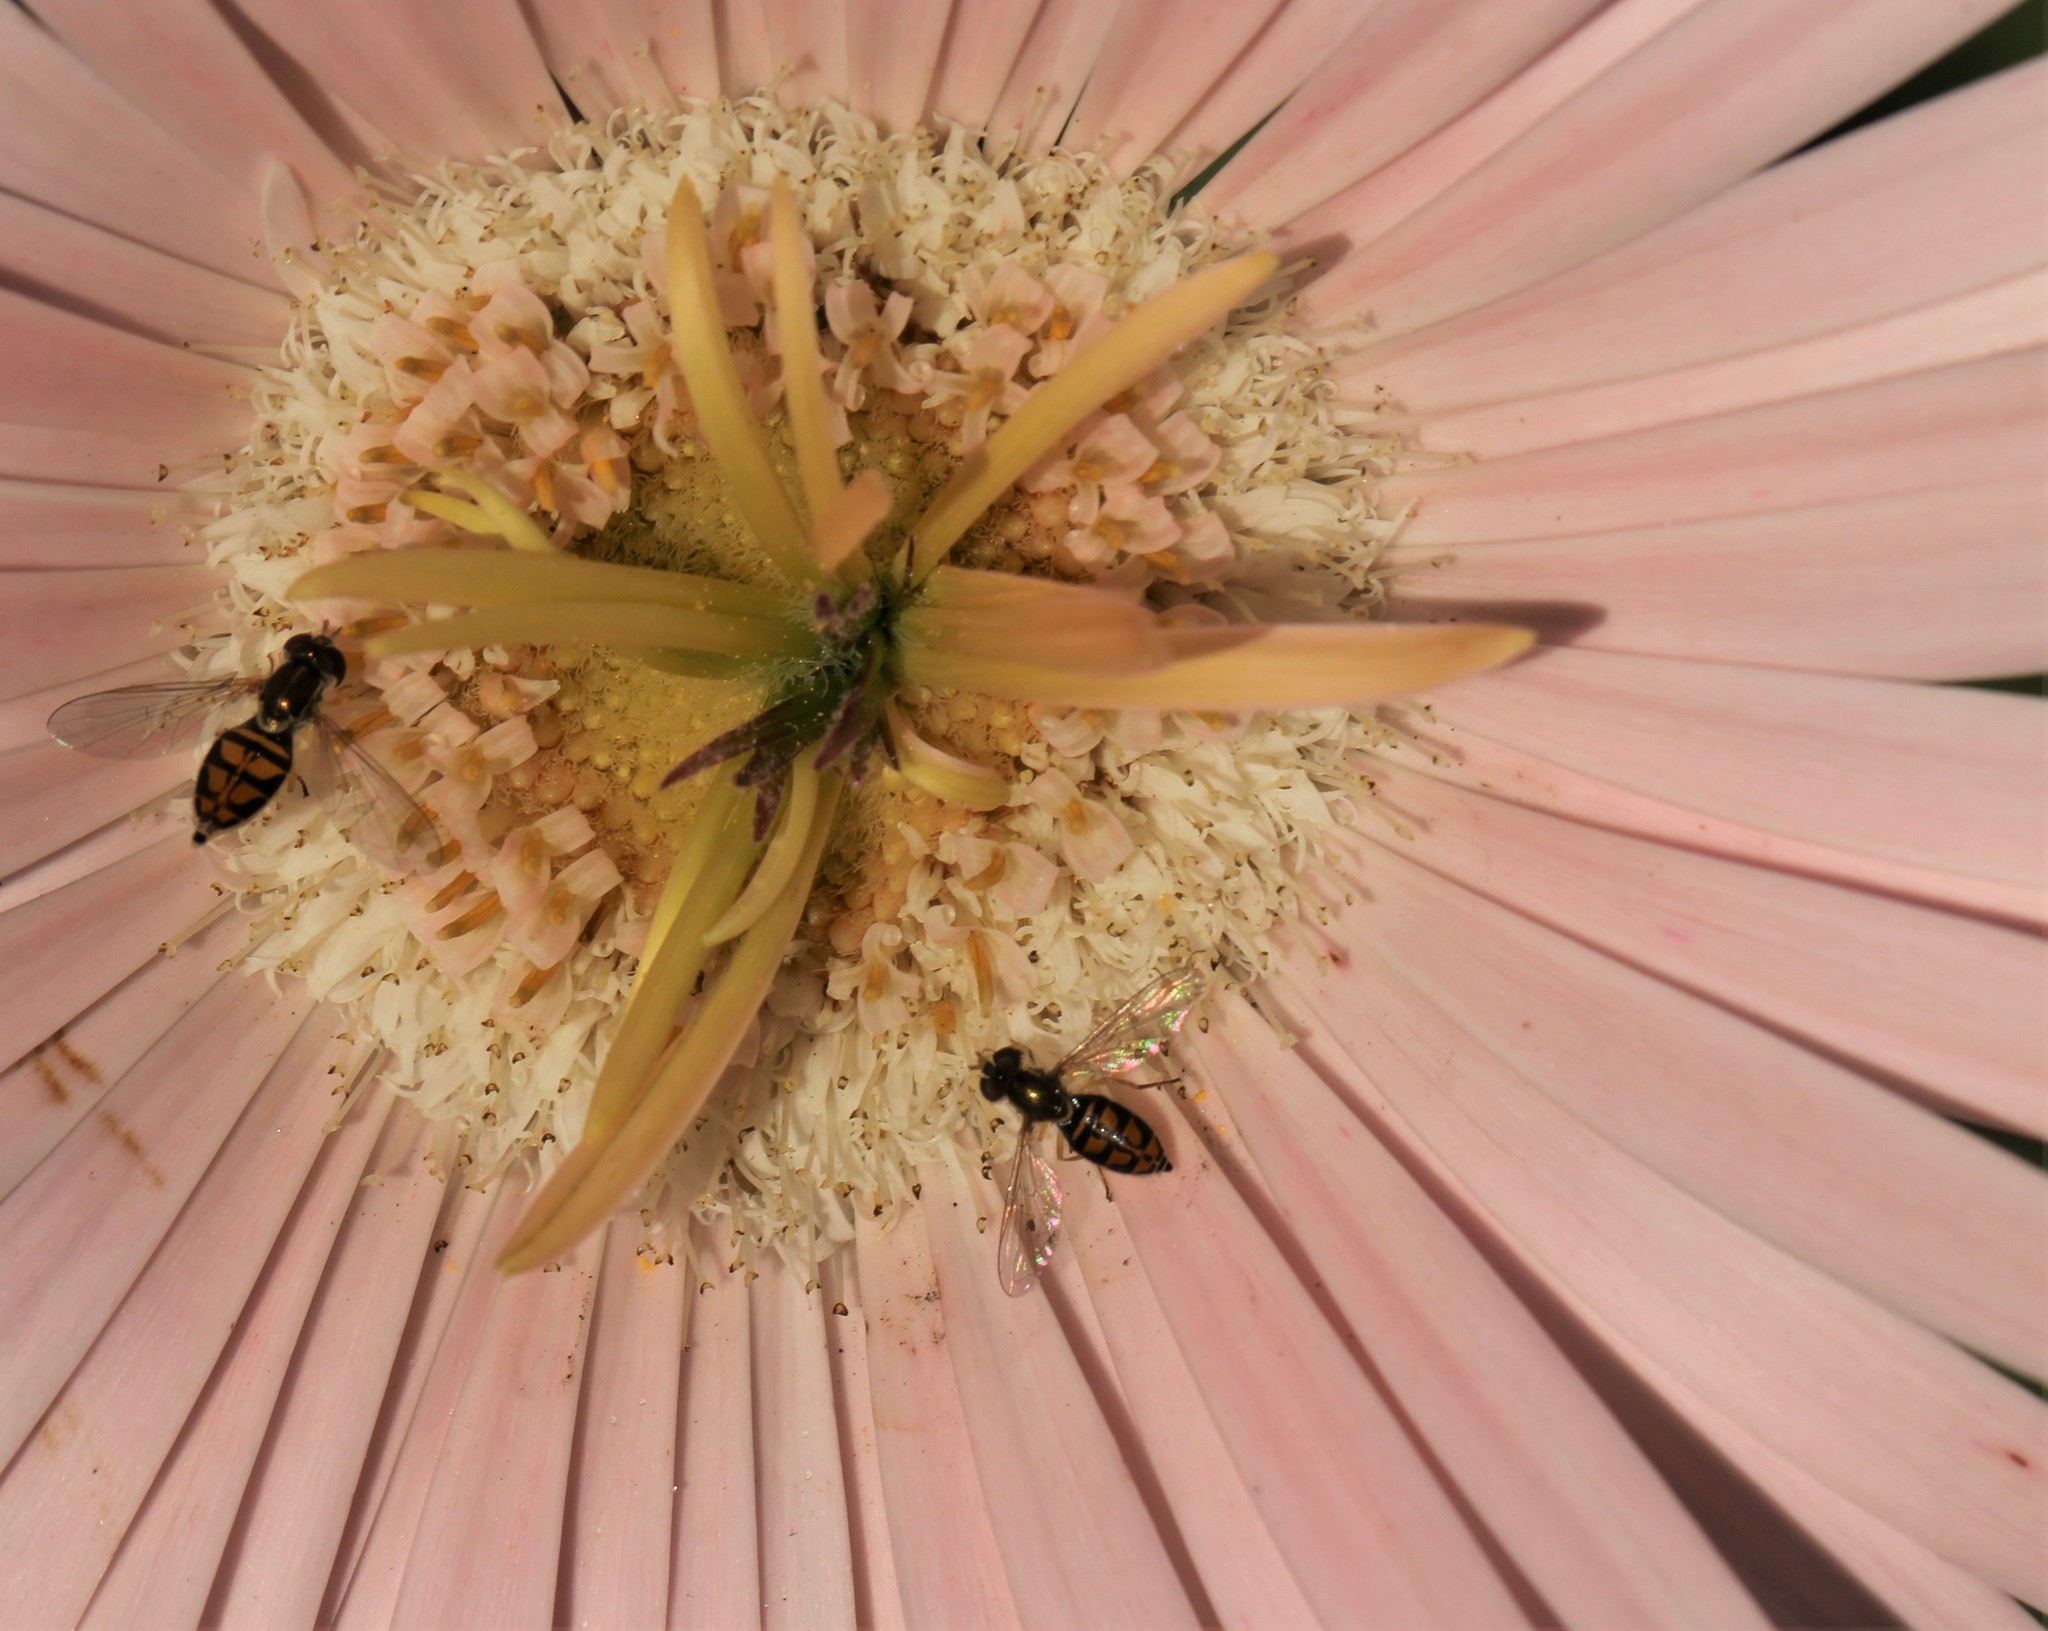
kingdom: Animalia
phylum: Arthropoda
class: Insecta
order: Diptera
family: Syrphidae
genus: Toxomerus
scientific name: Toxomerus marginatus
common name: Syrphid fly
